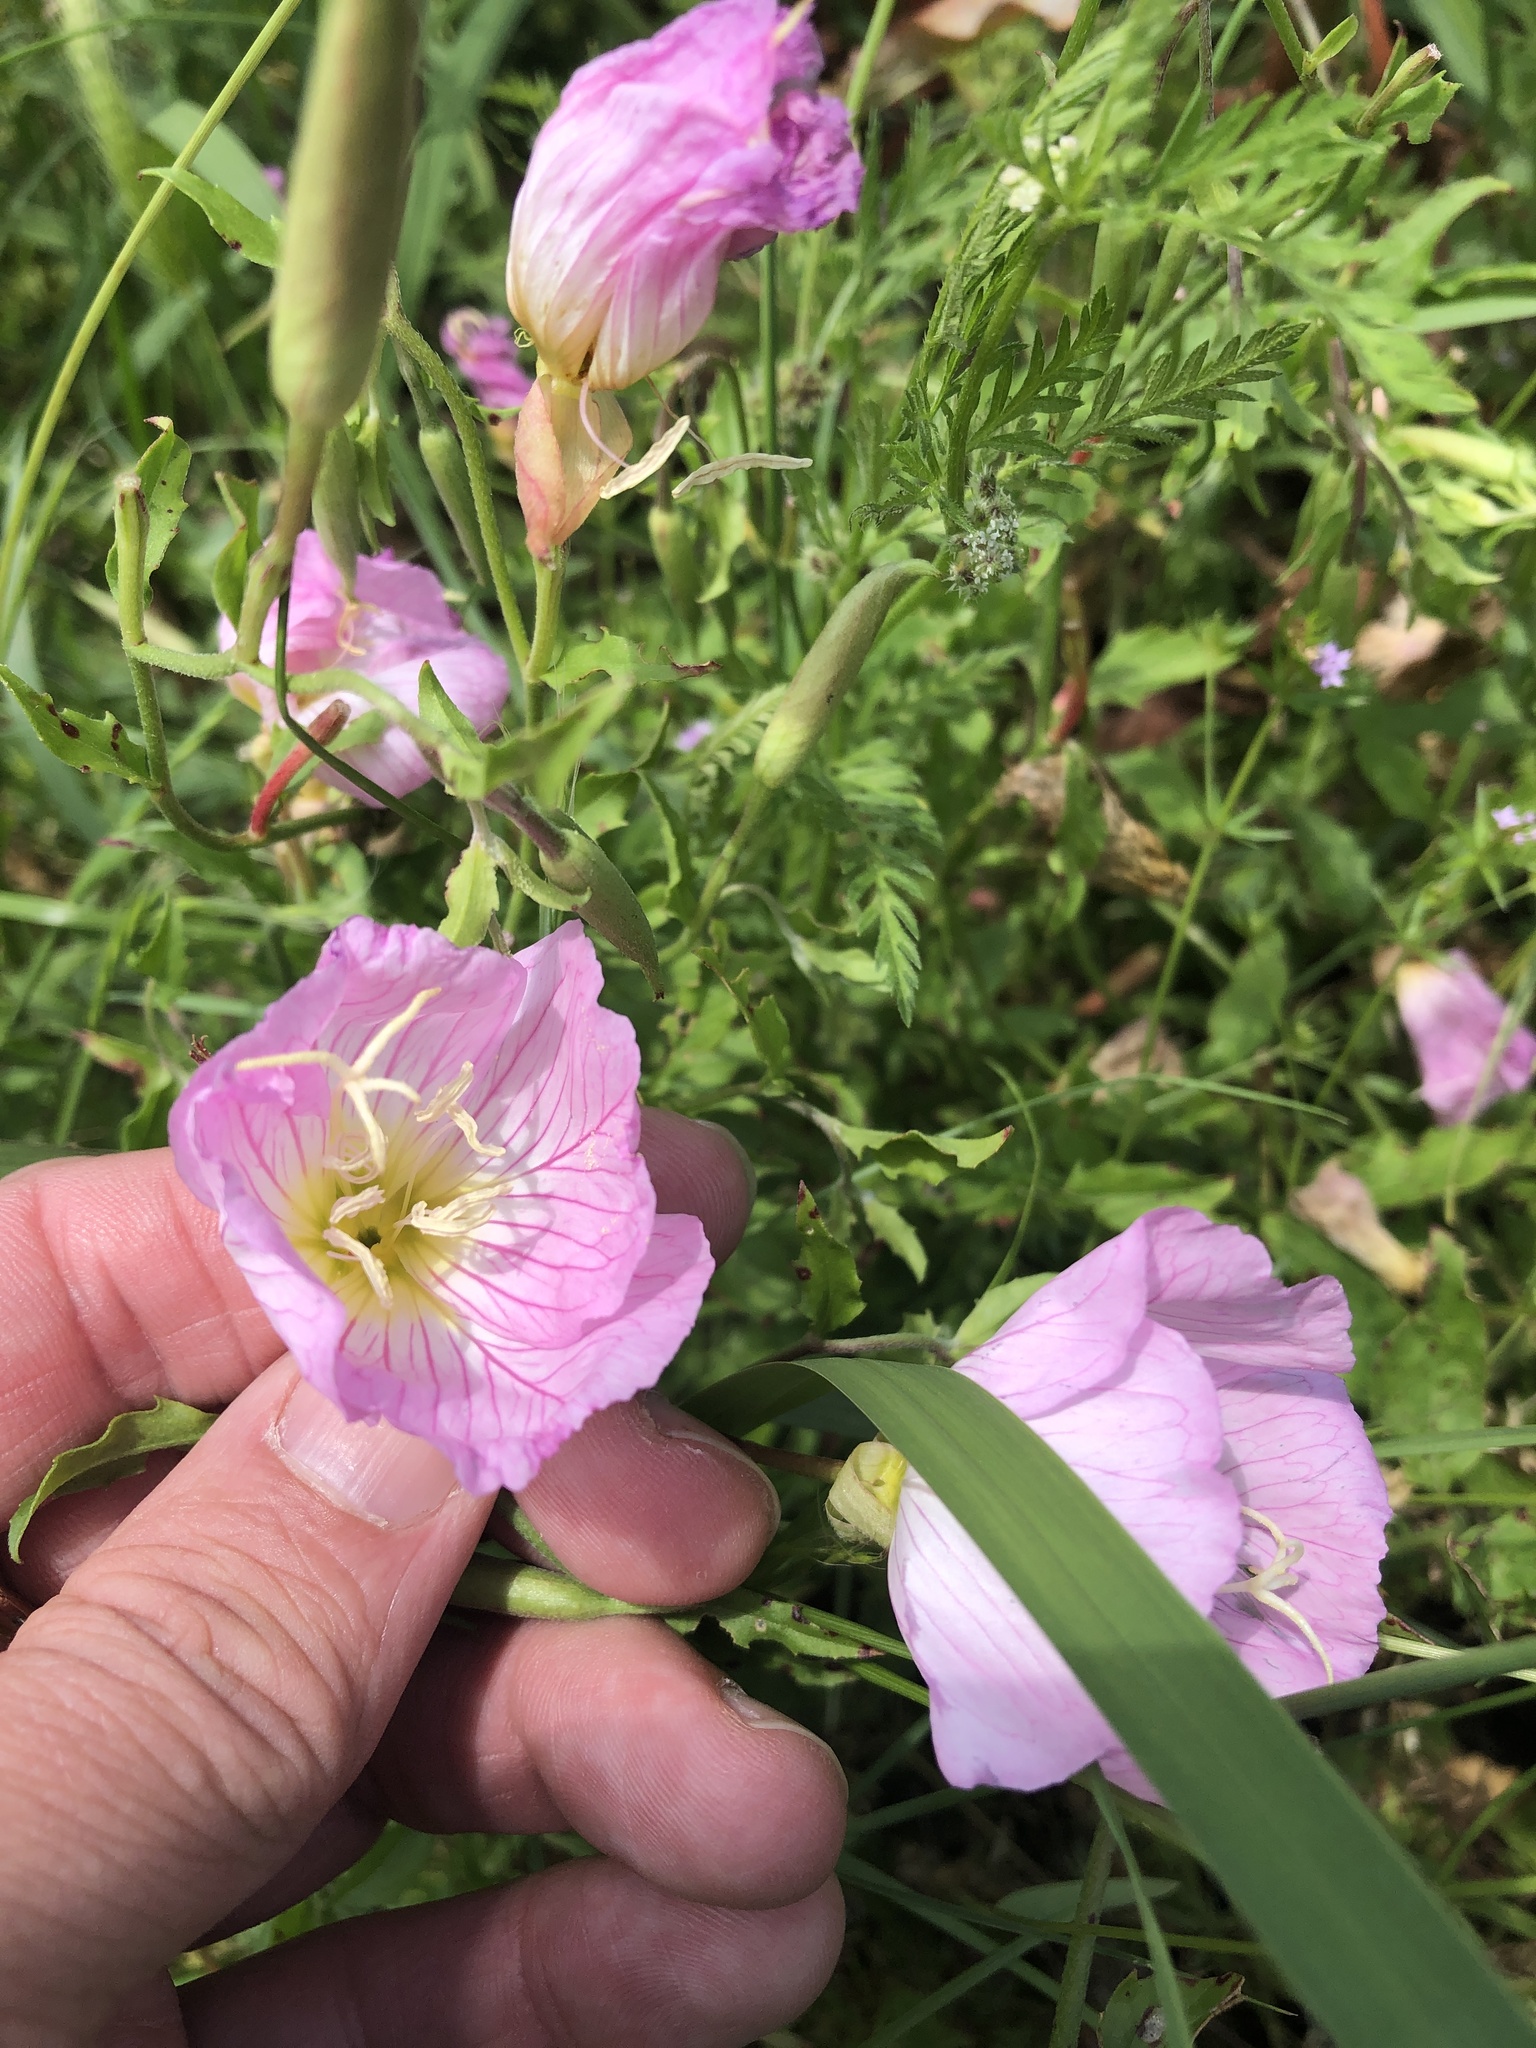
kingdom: Plantae
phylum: Tracheophyta
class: Magnoliopsida
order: Myrtales
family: Onagraceae
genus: Oenothera
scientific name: Oenothera speciosa
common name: White evening-primrose
